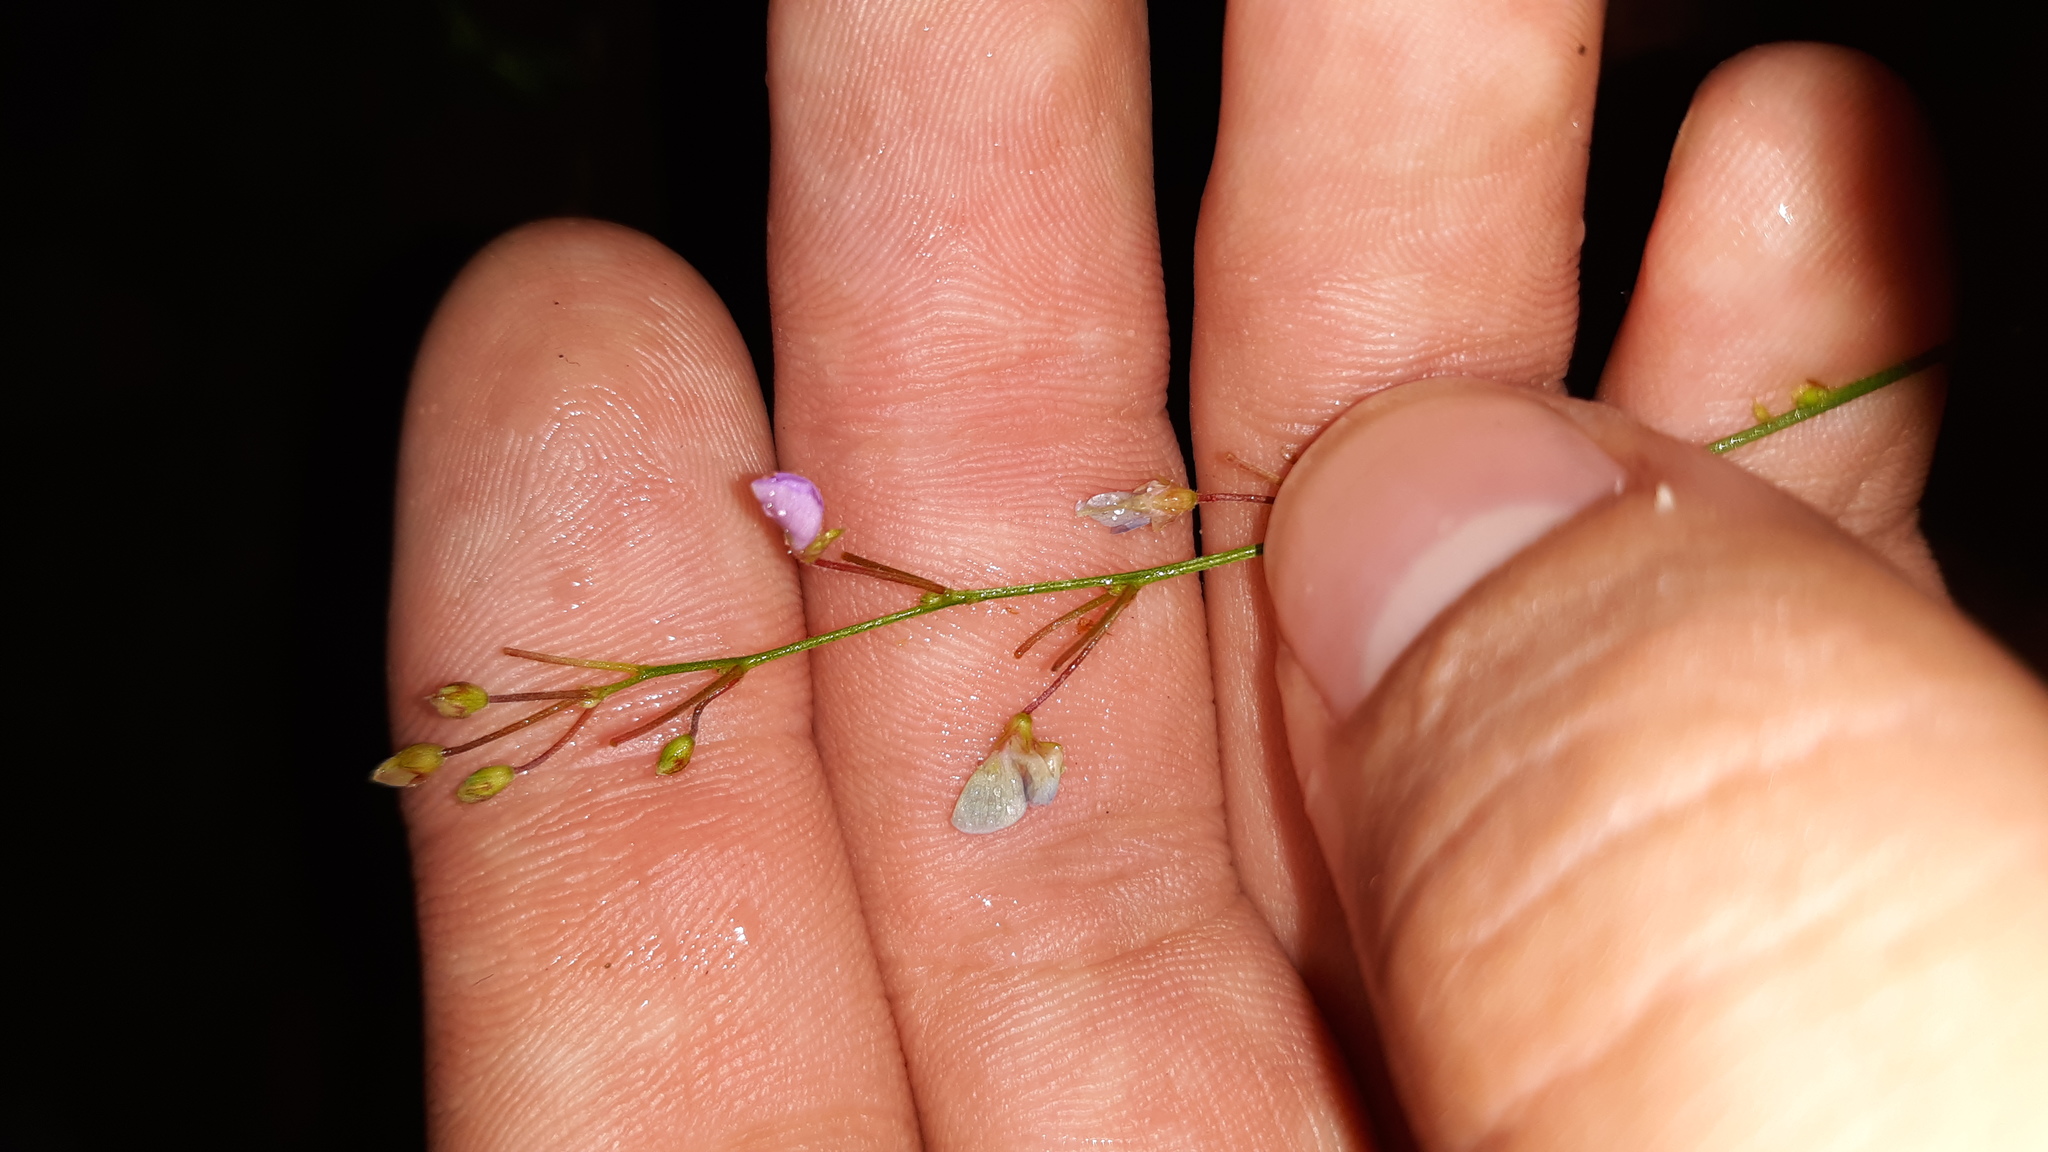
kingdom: Plantae
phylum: Tracheophyta
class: Magnoliopsida
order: Fabales
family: Fabaceae
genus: Desmodium
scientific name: Desmodium ciliare
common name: Hairy small-leaf ticktrefoil
